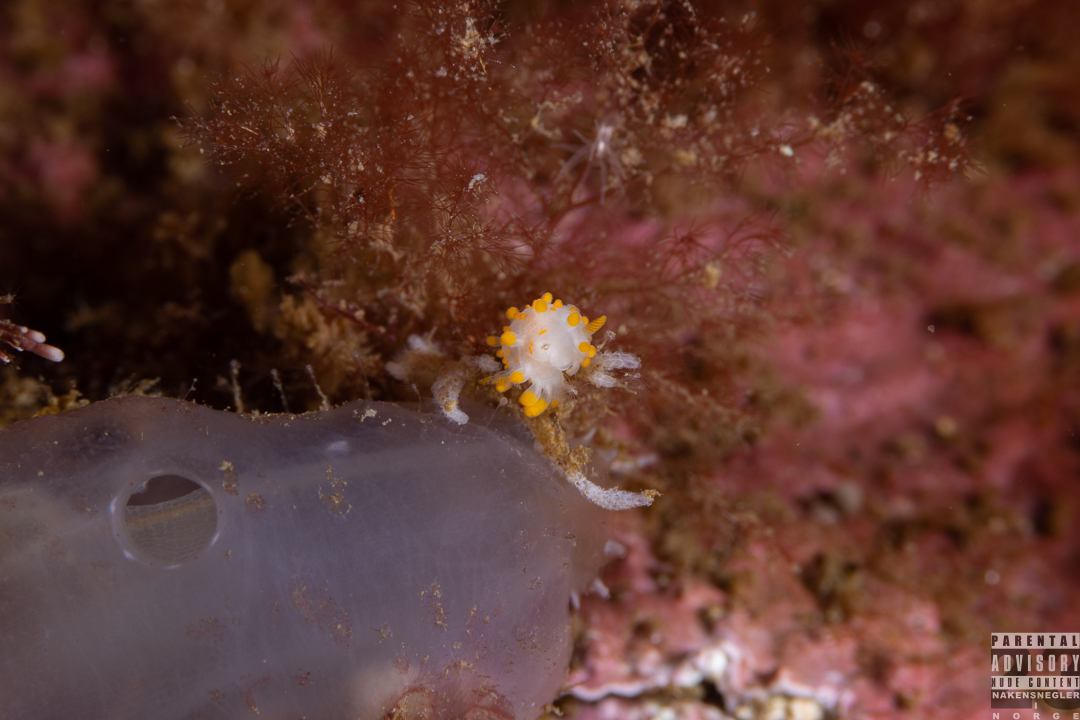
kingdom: Animalia
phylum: Mollusca
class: Gastropoda
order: Nudibranchia
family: Polyceridae
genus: Limacia
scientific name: Limacia clavigera
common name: Orange-clubbed sea slug
